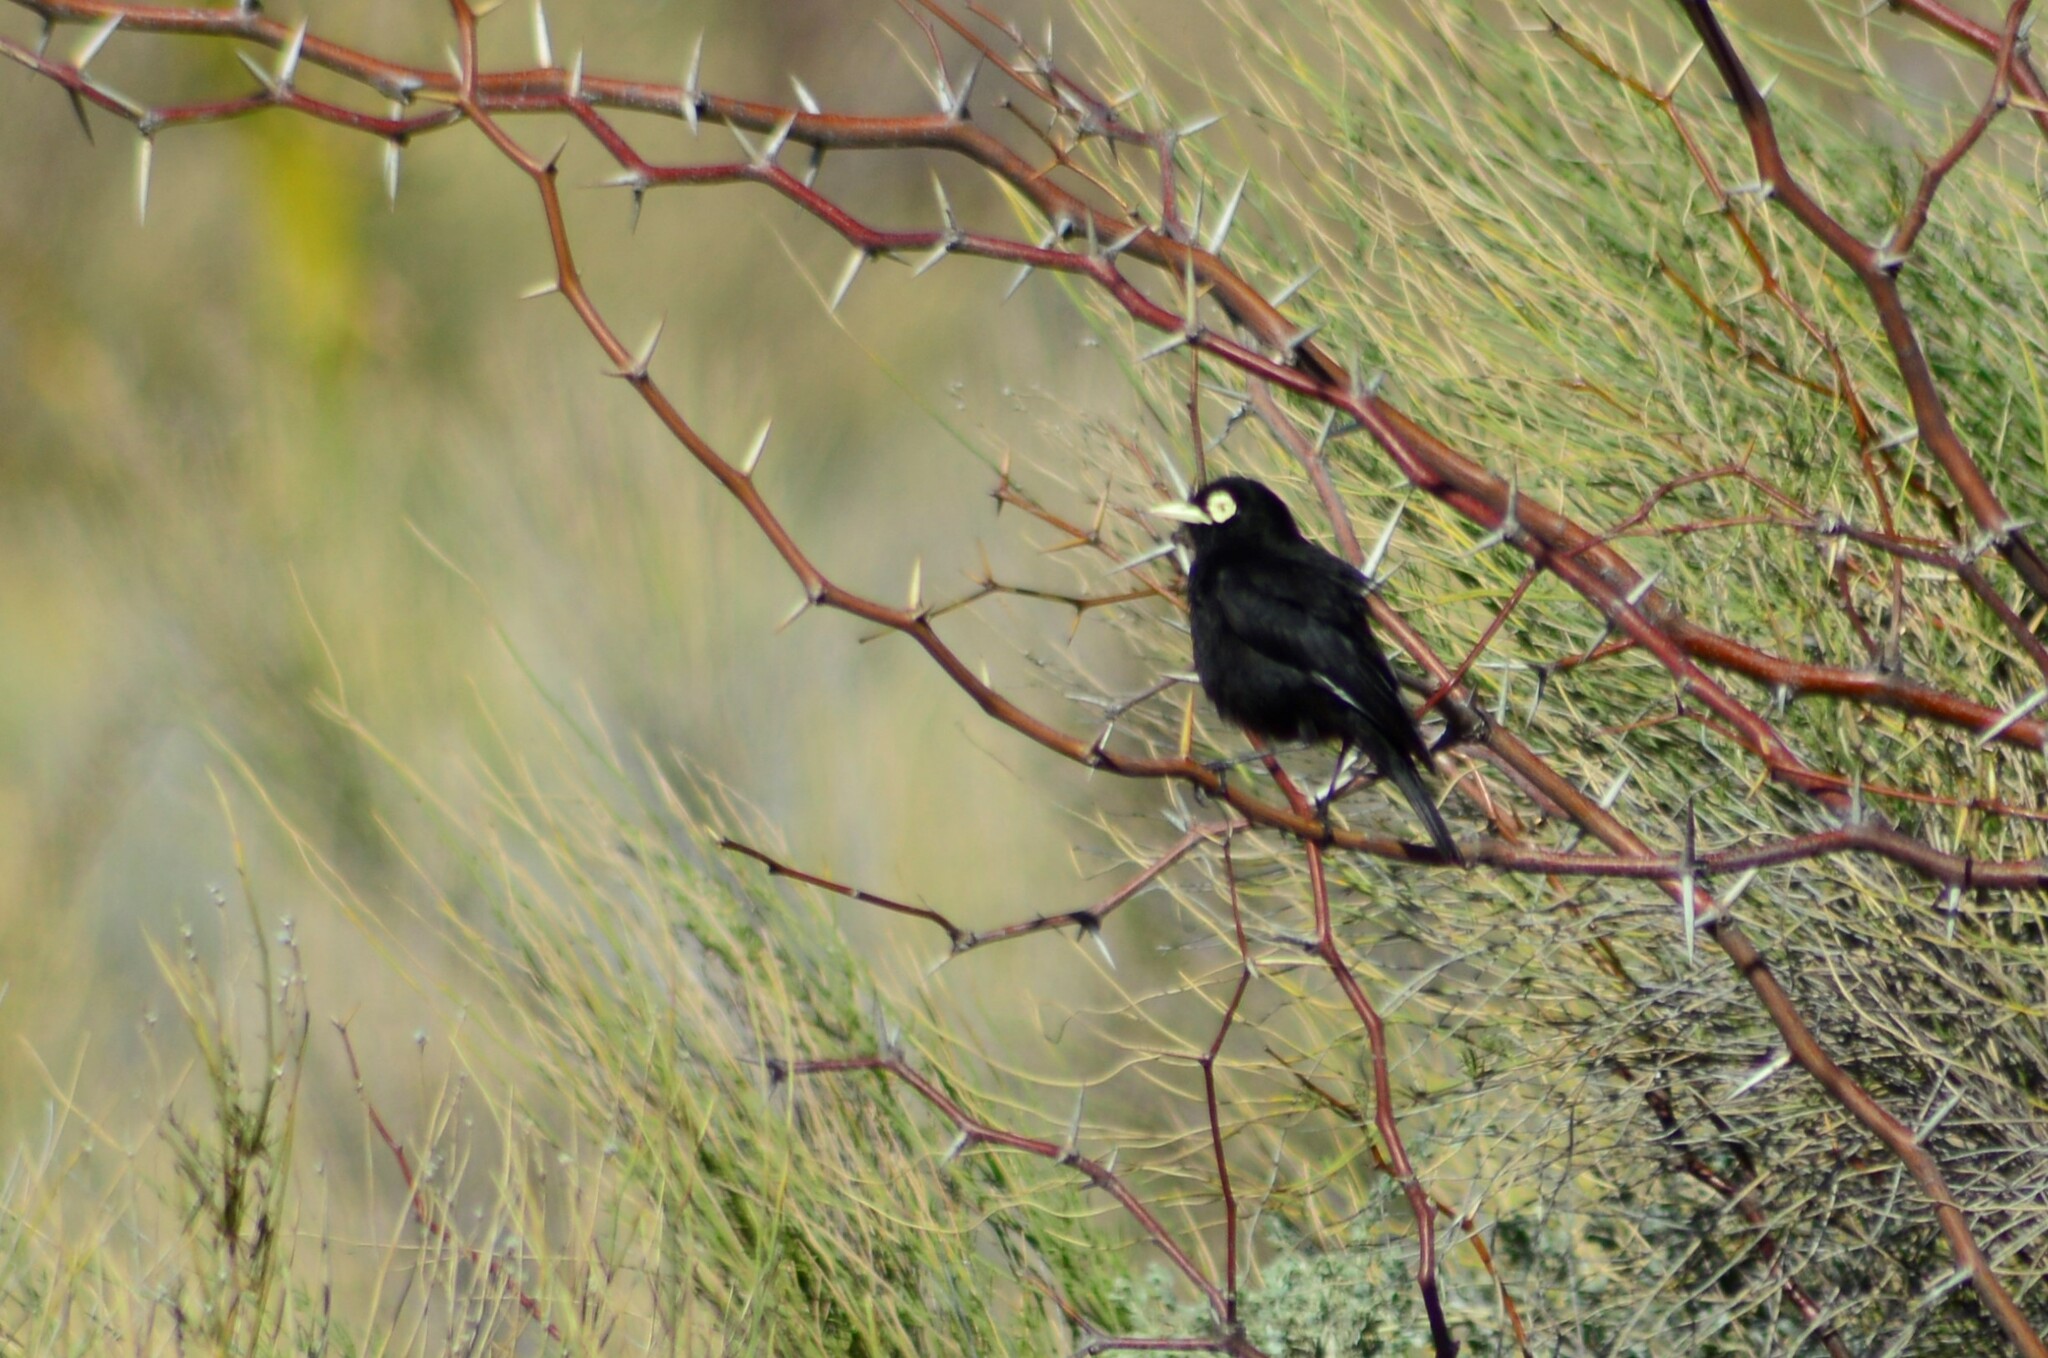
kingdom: Animalia
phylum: Chordata
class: Aves
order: Passeriformes
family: Tyrannidae
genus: Hymenops
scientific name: Hymenops perspicillatus
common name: Spectacled tyrant
